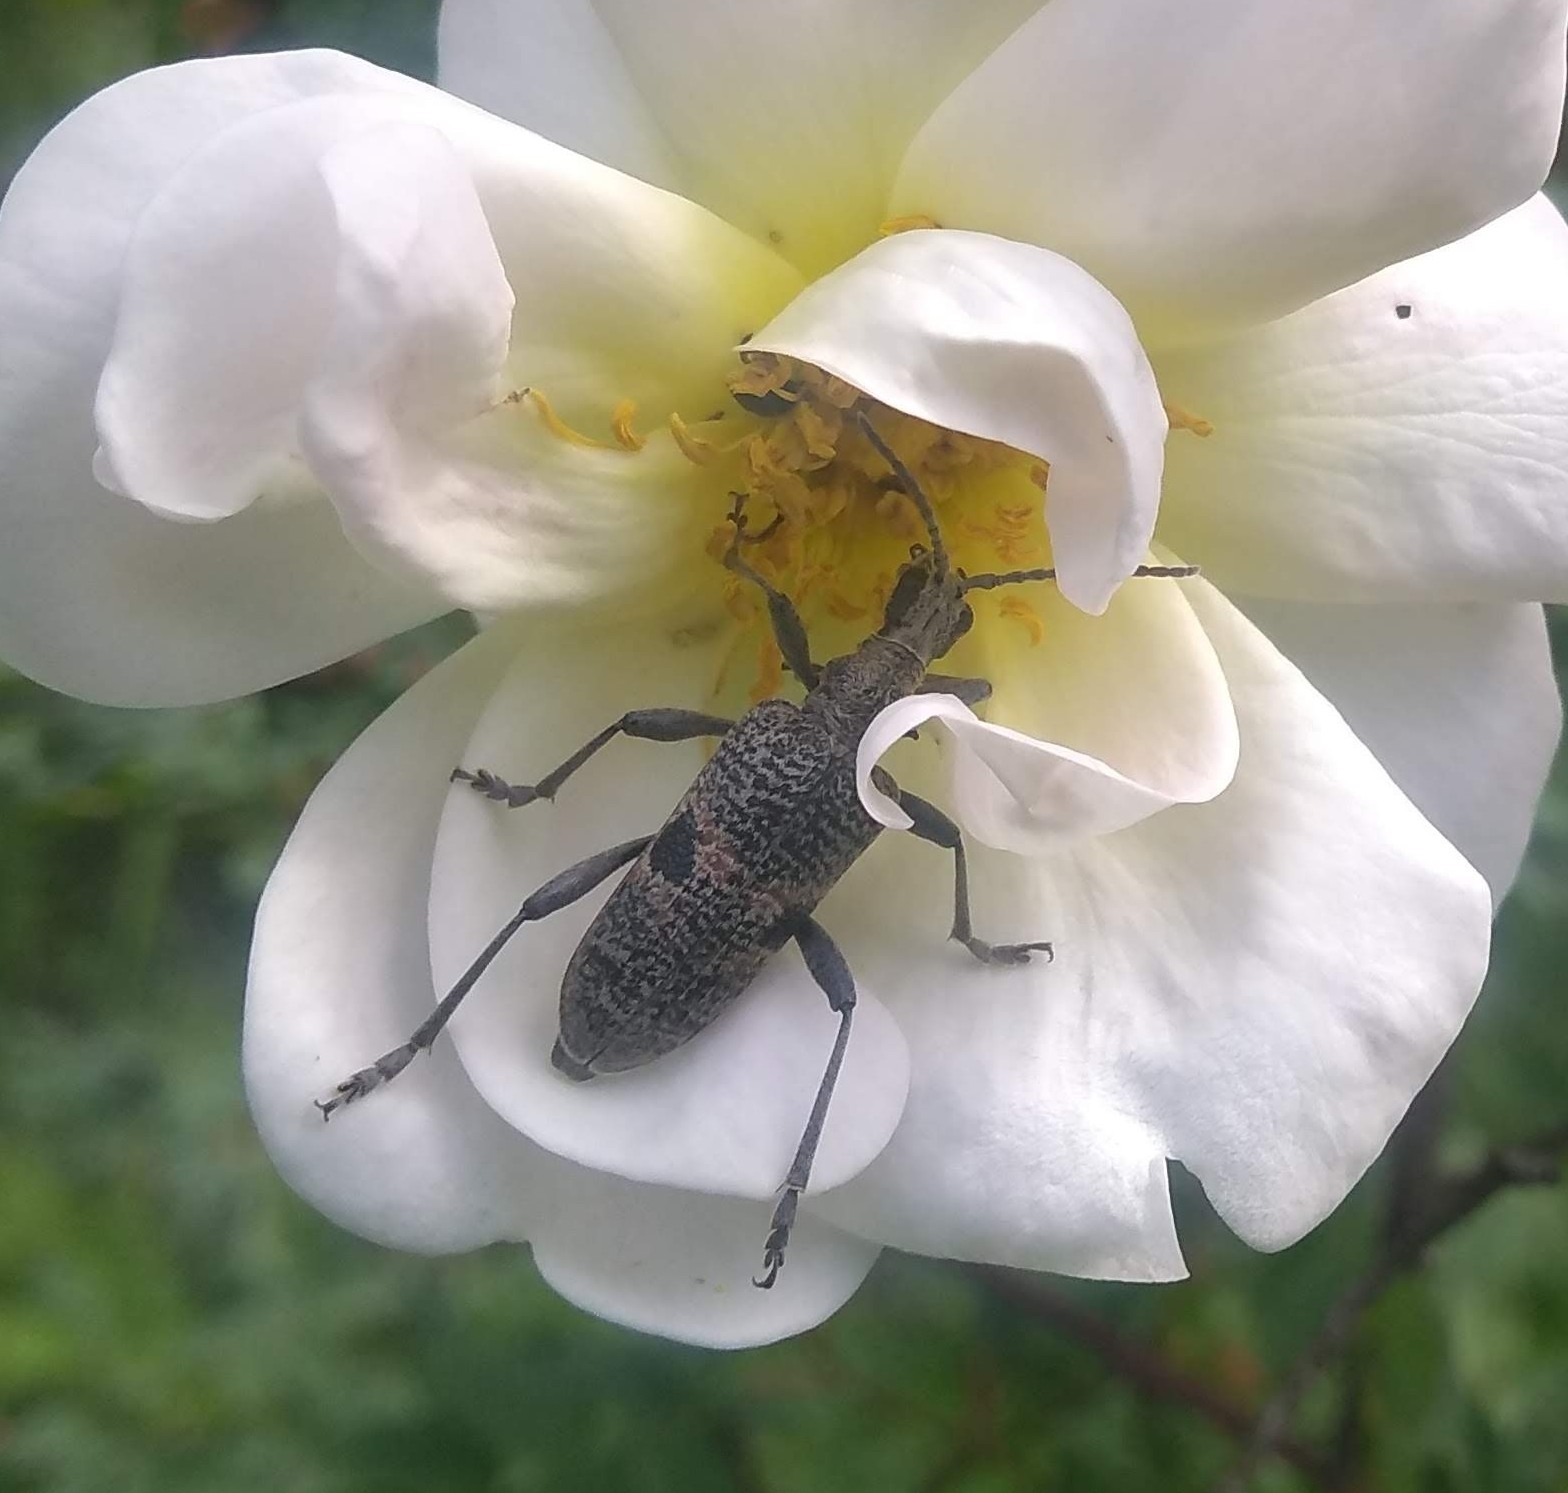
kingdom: Animalia
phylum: Arthropoda
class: Insecta
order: Coleoptera
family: Cerambycidae
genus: Rhagium
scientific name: Rhagium mordax
